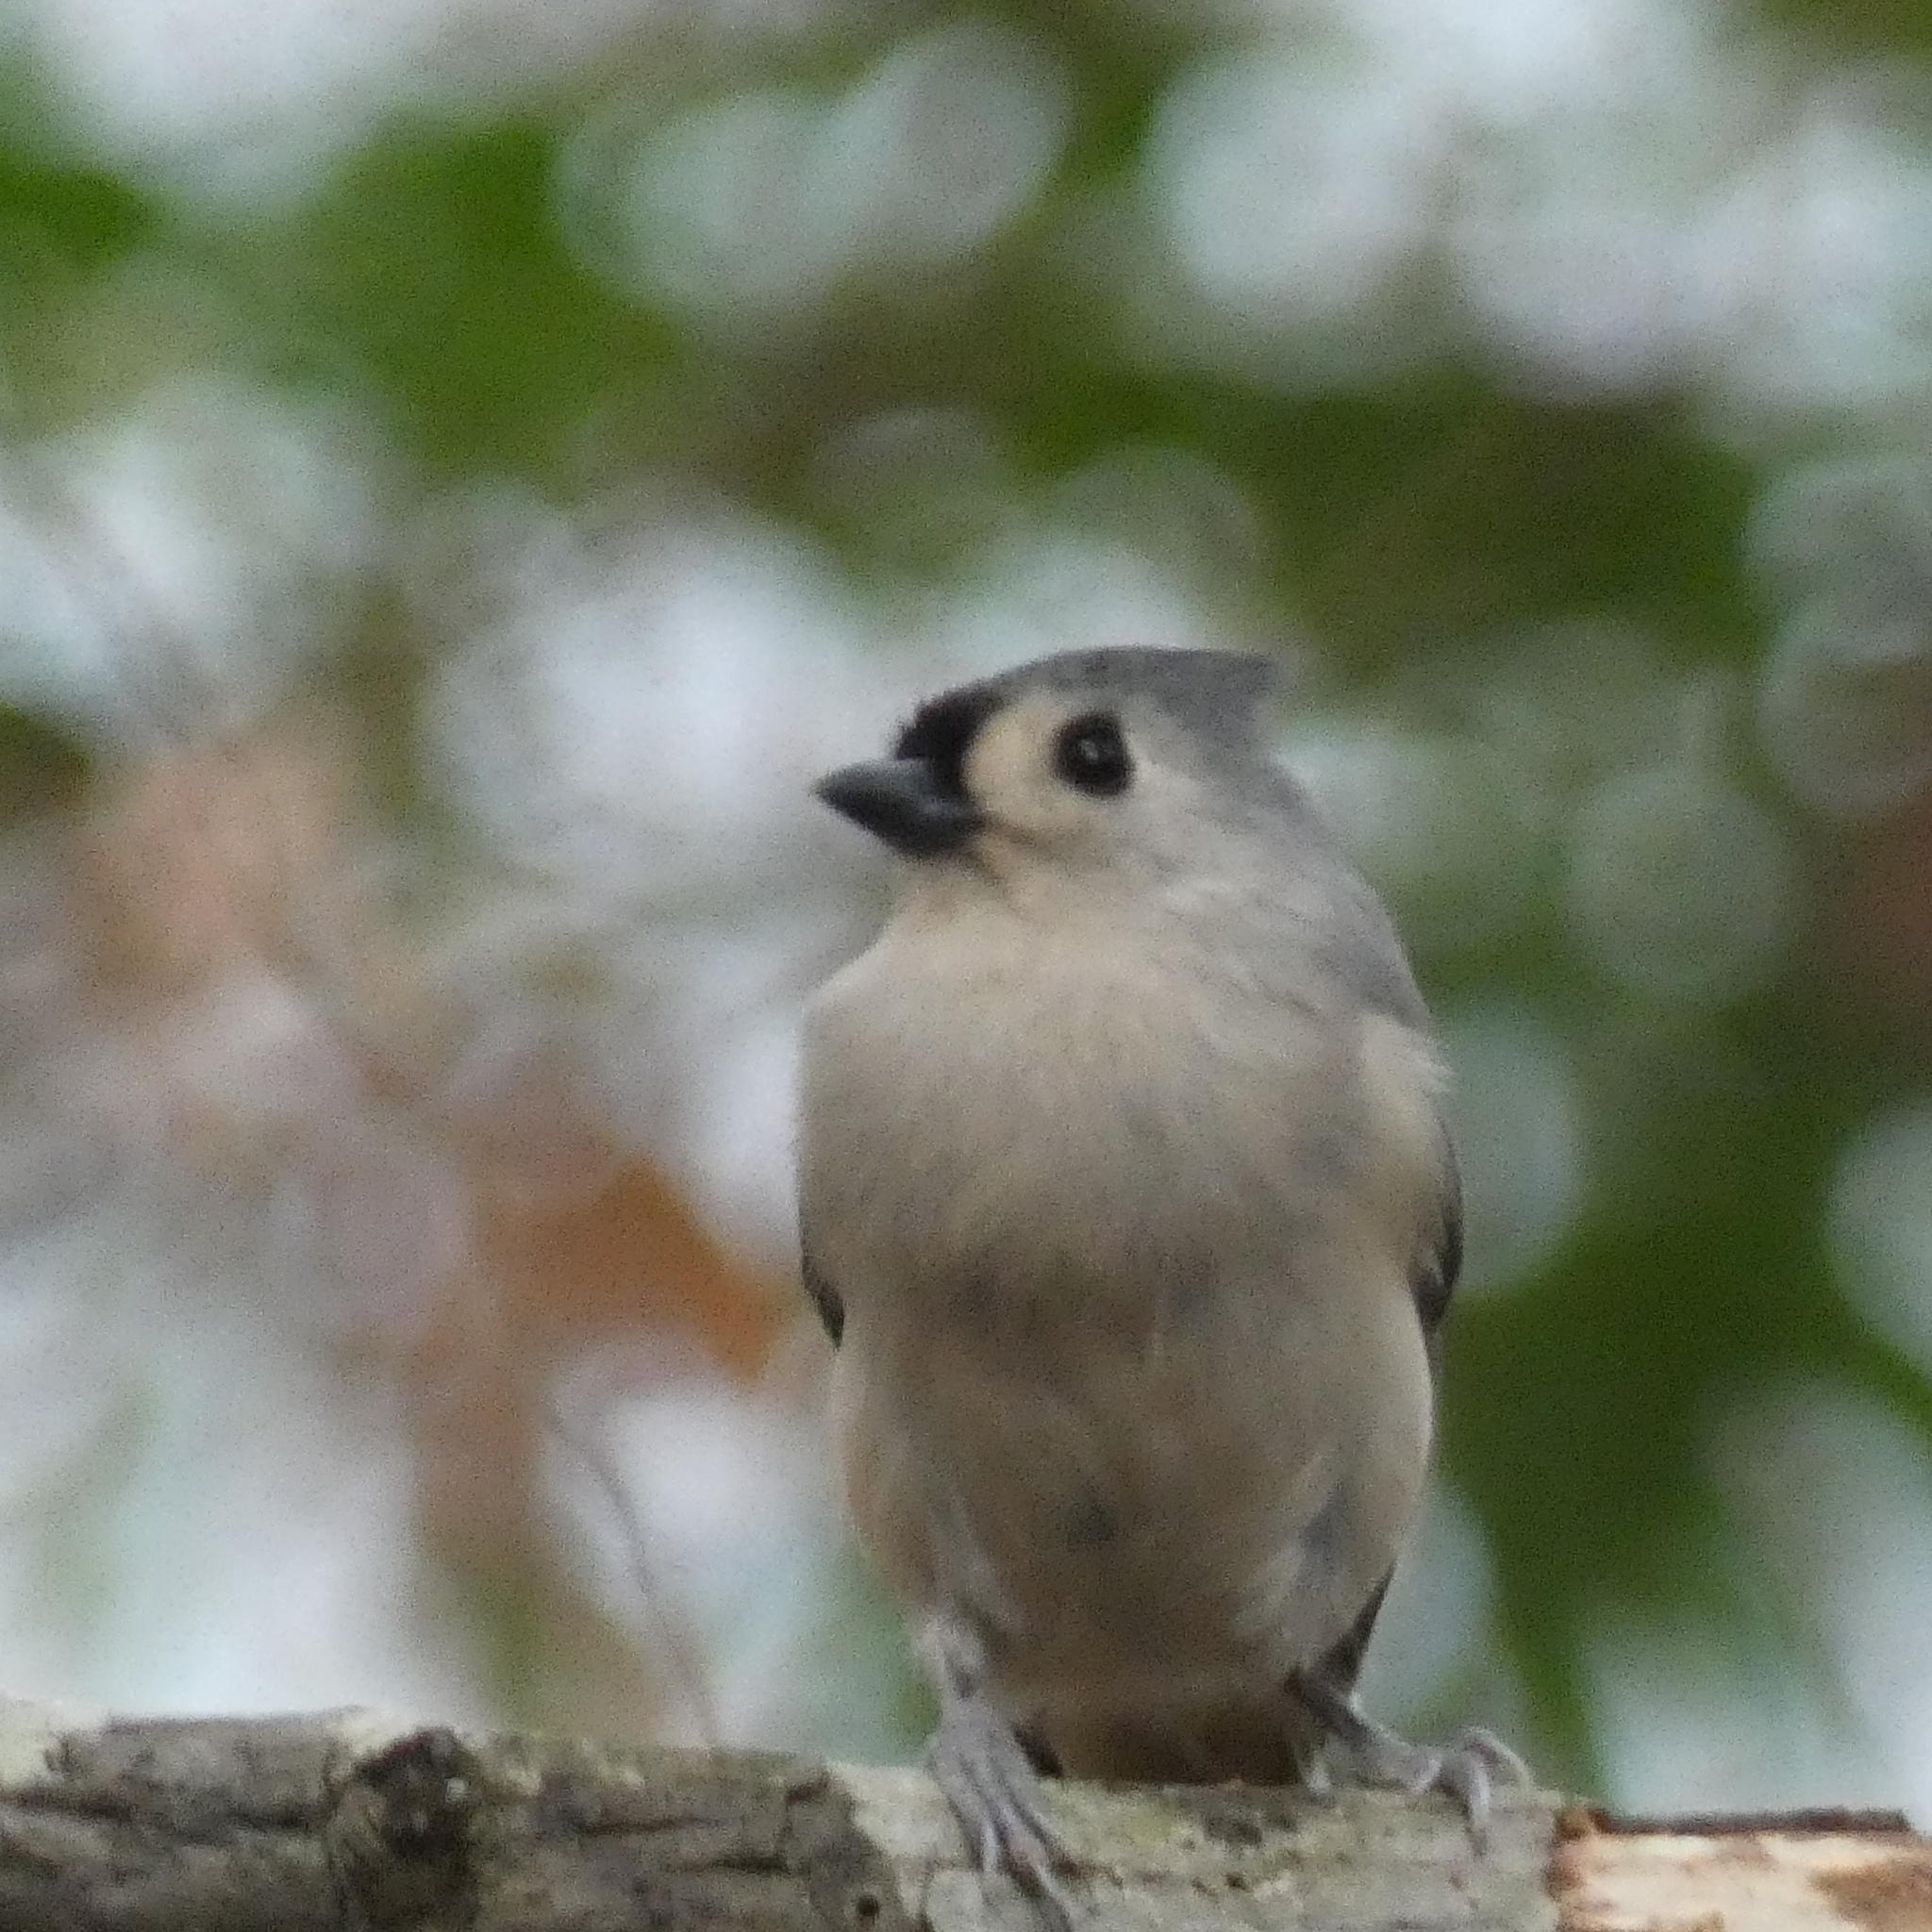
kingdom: Animalia
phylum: Chordata
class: Aves
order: Passeriformes
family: Paridae
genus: Baeolophus
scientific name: Baeolophus bicolor
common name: Tufted titmouse
